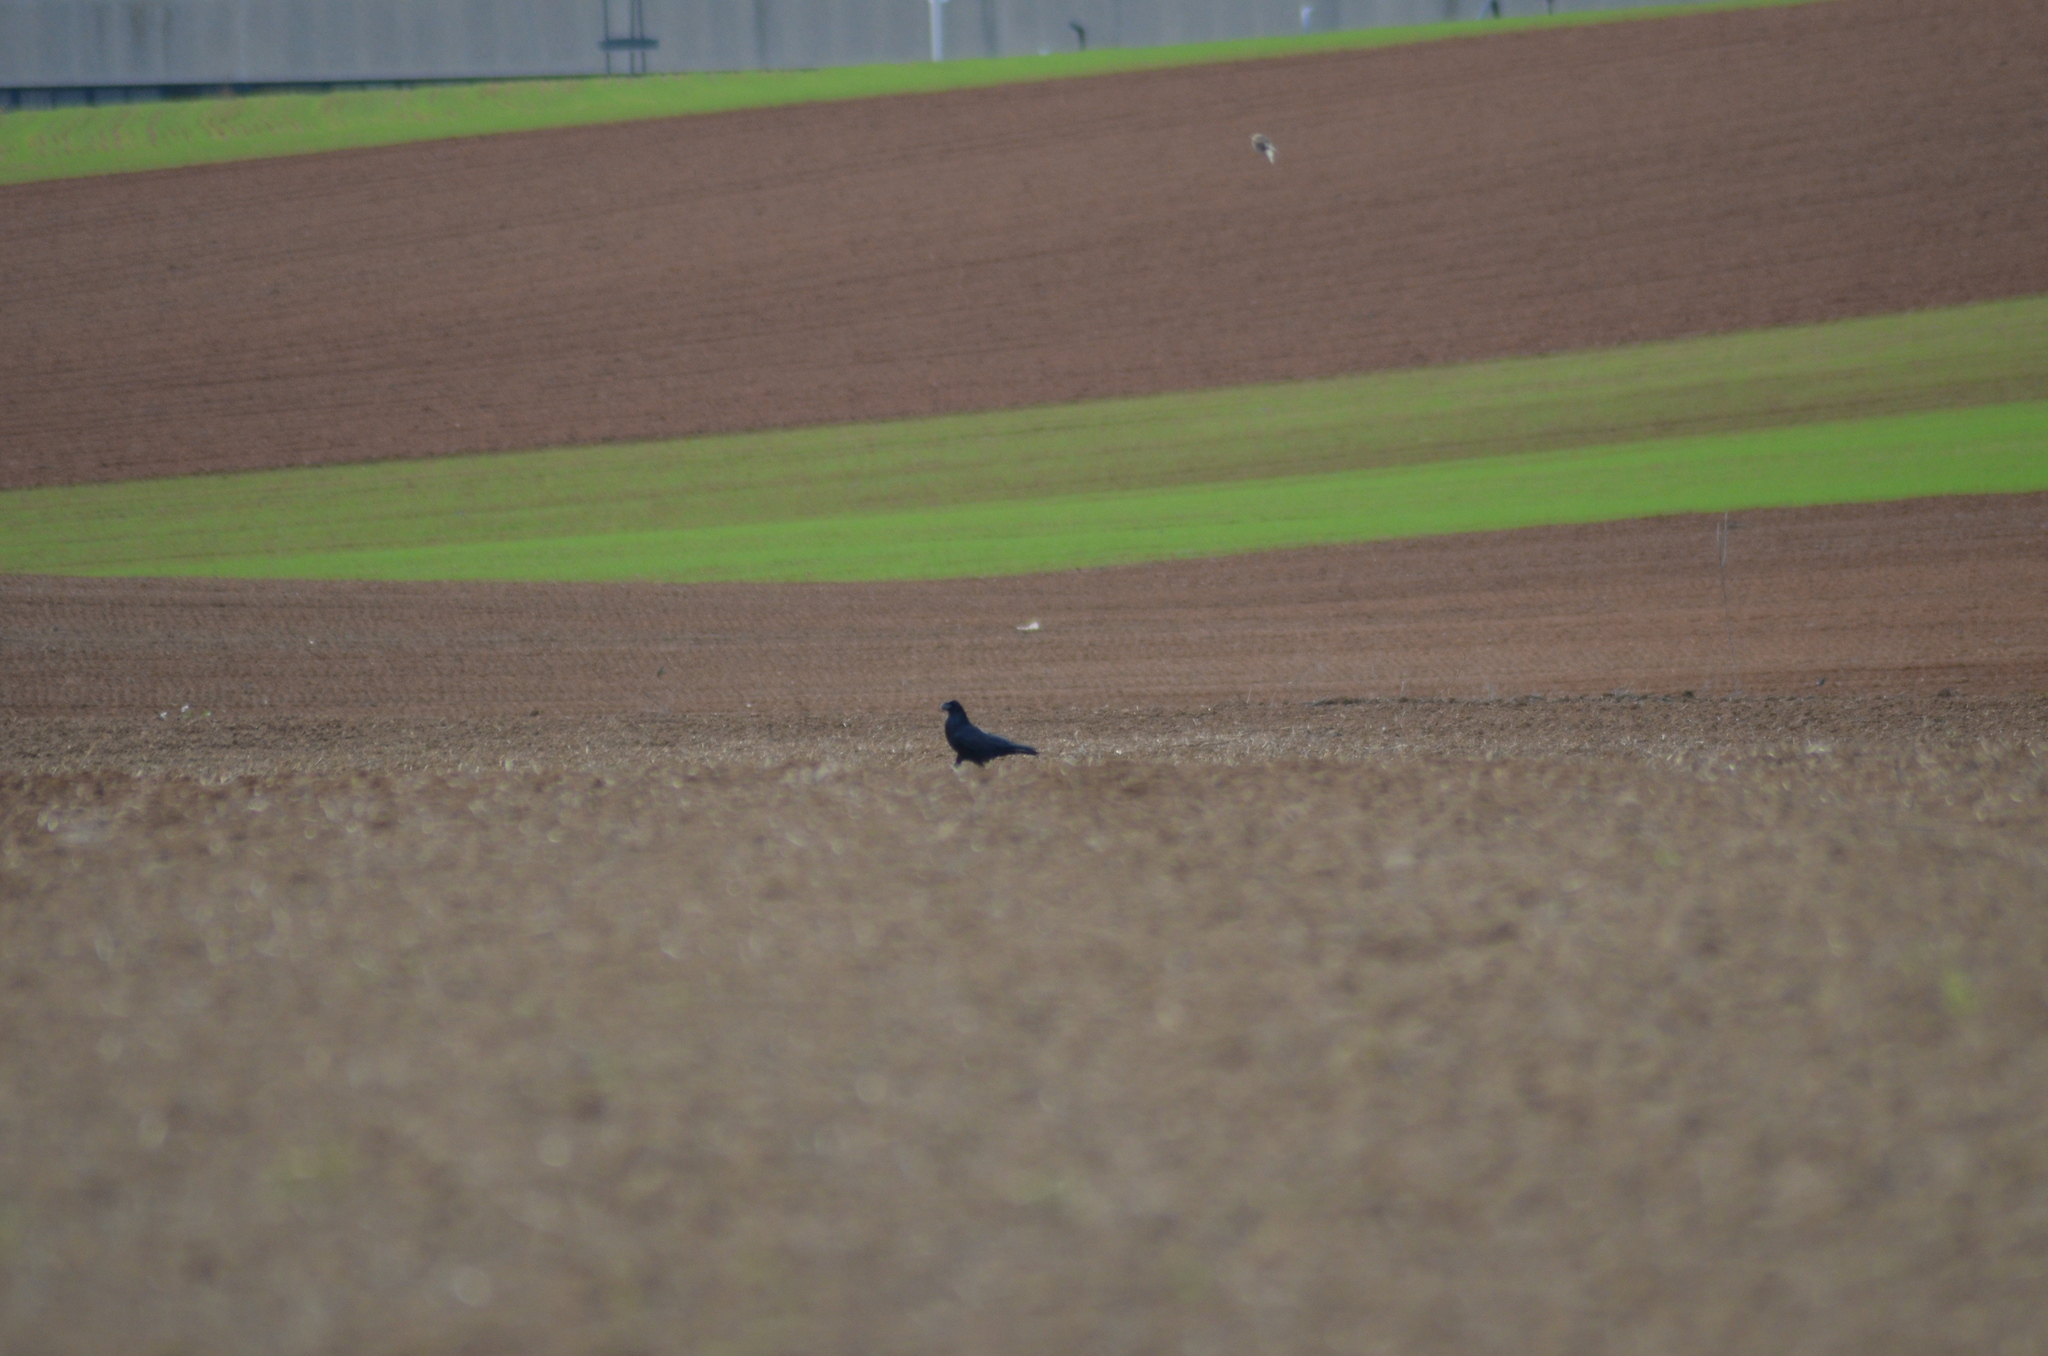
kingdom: Animalia
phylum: Chordata
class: Aves
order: Passeriformes
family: Corvidae
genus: Corvus
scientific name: Corvus corax
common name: Common raven
